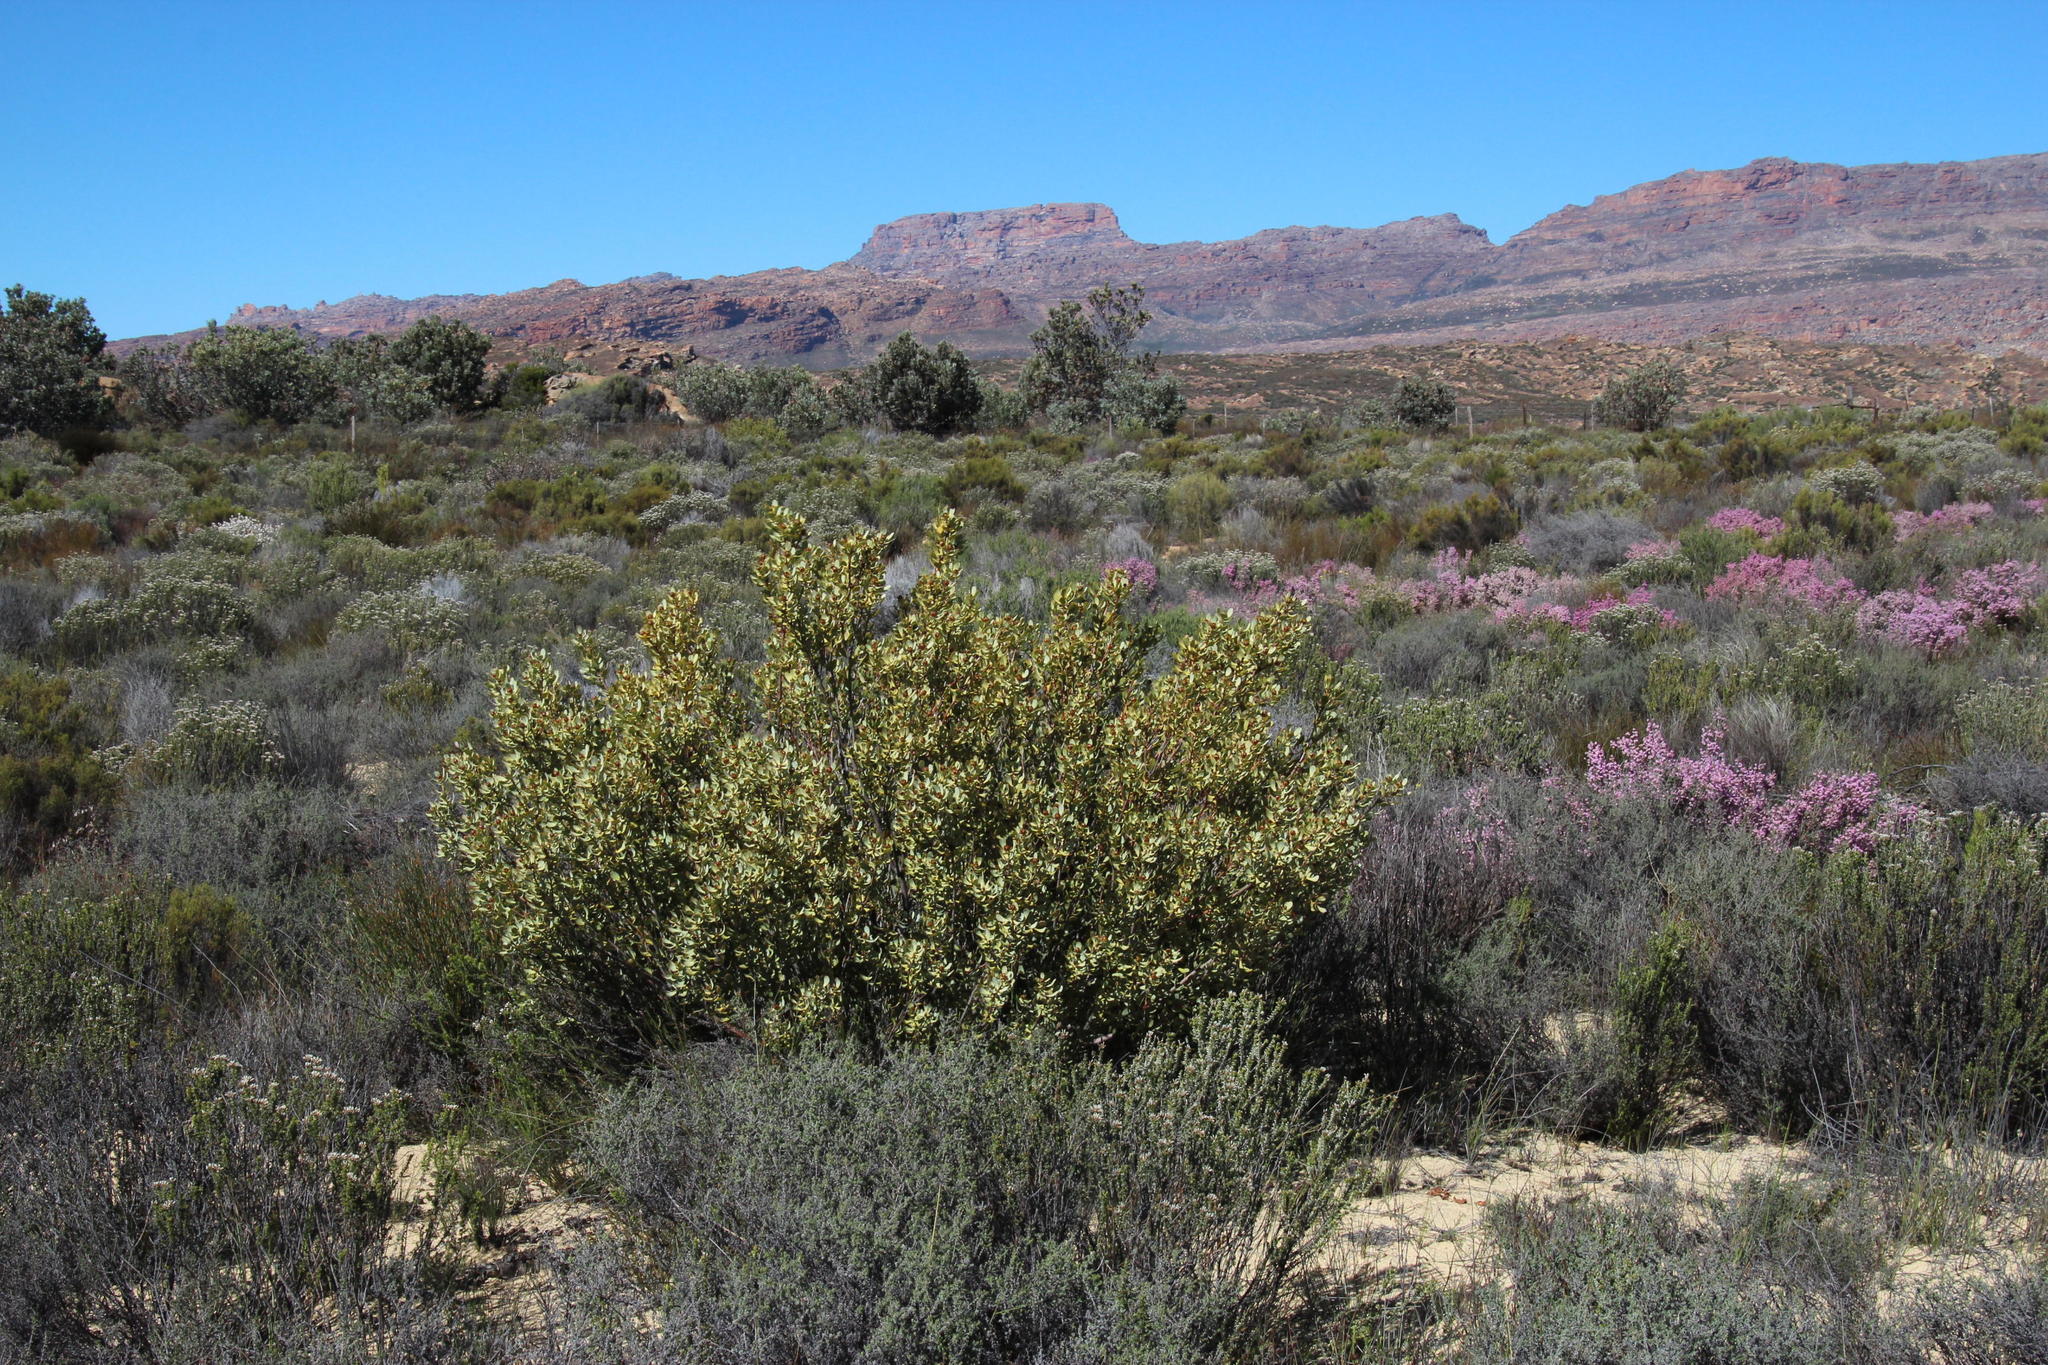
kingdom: Plantae
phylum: Tracheophyta
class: Magnoliopsida
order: Proteales
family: Proteaceae
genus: Leucadendron
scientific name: Leucadendron loranthifolium
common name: Green-flower sunbush
